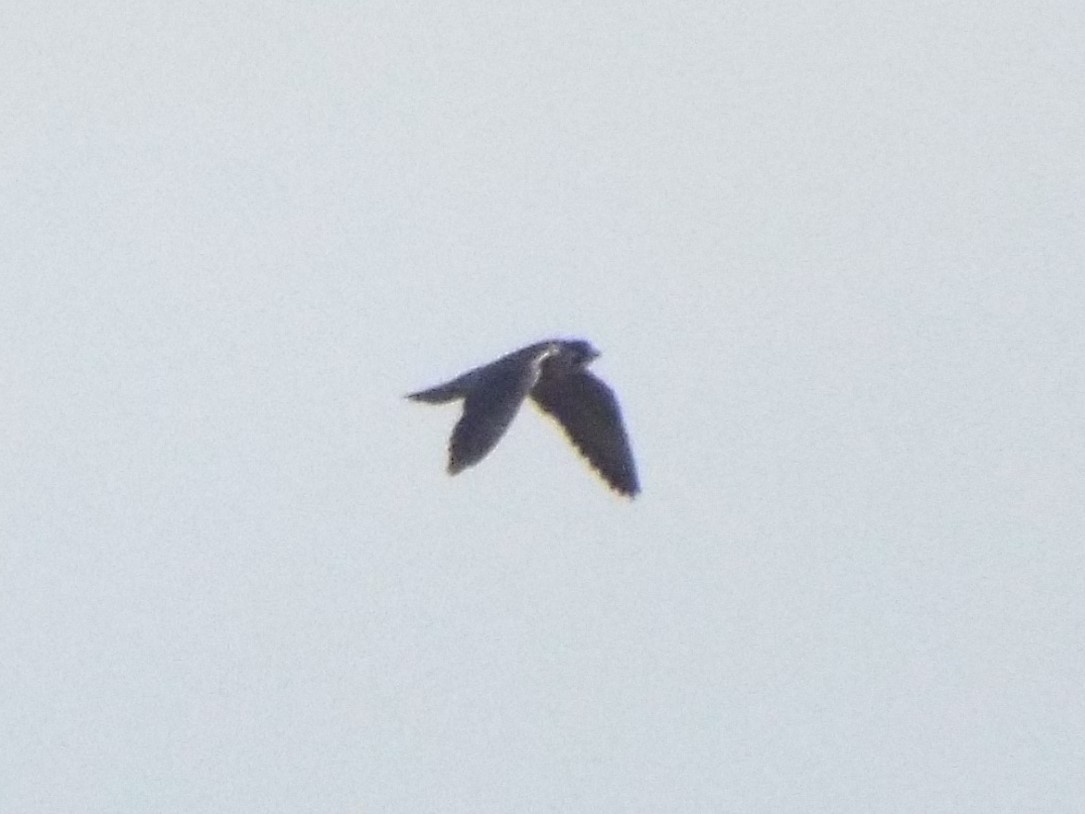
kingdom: Animalia
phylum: Chordata
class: Aves
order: Falconiformes
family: Falconidae
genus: Falco
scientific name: Falco peregrinus
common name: Peregrine falcon
